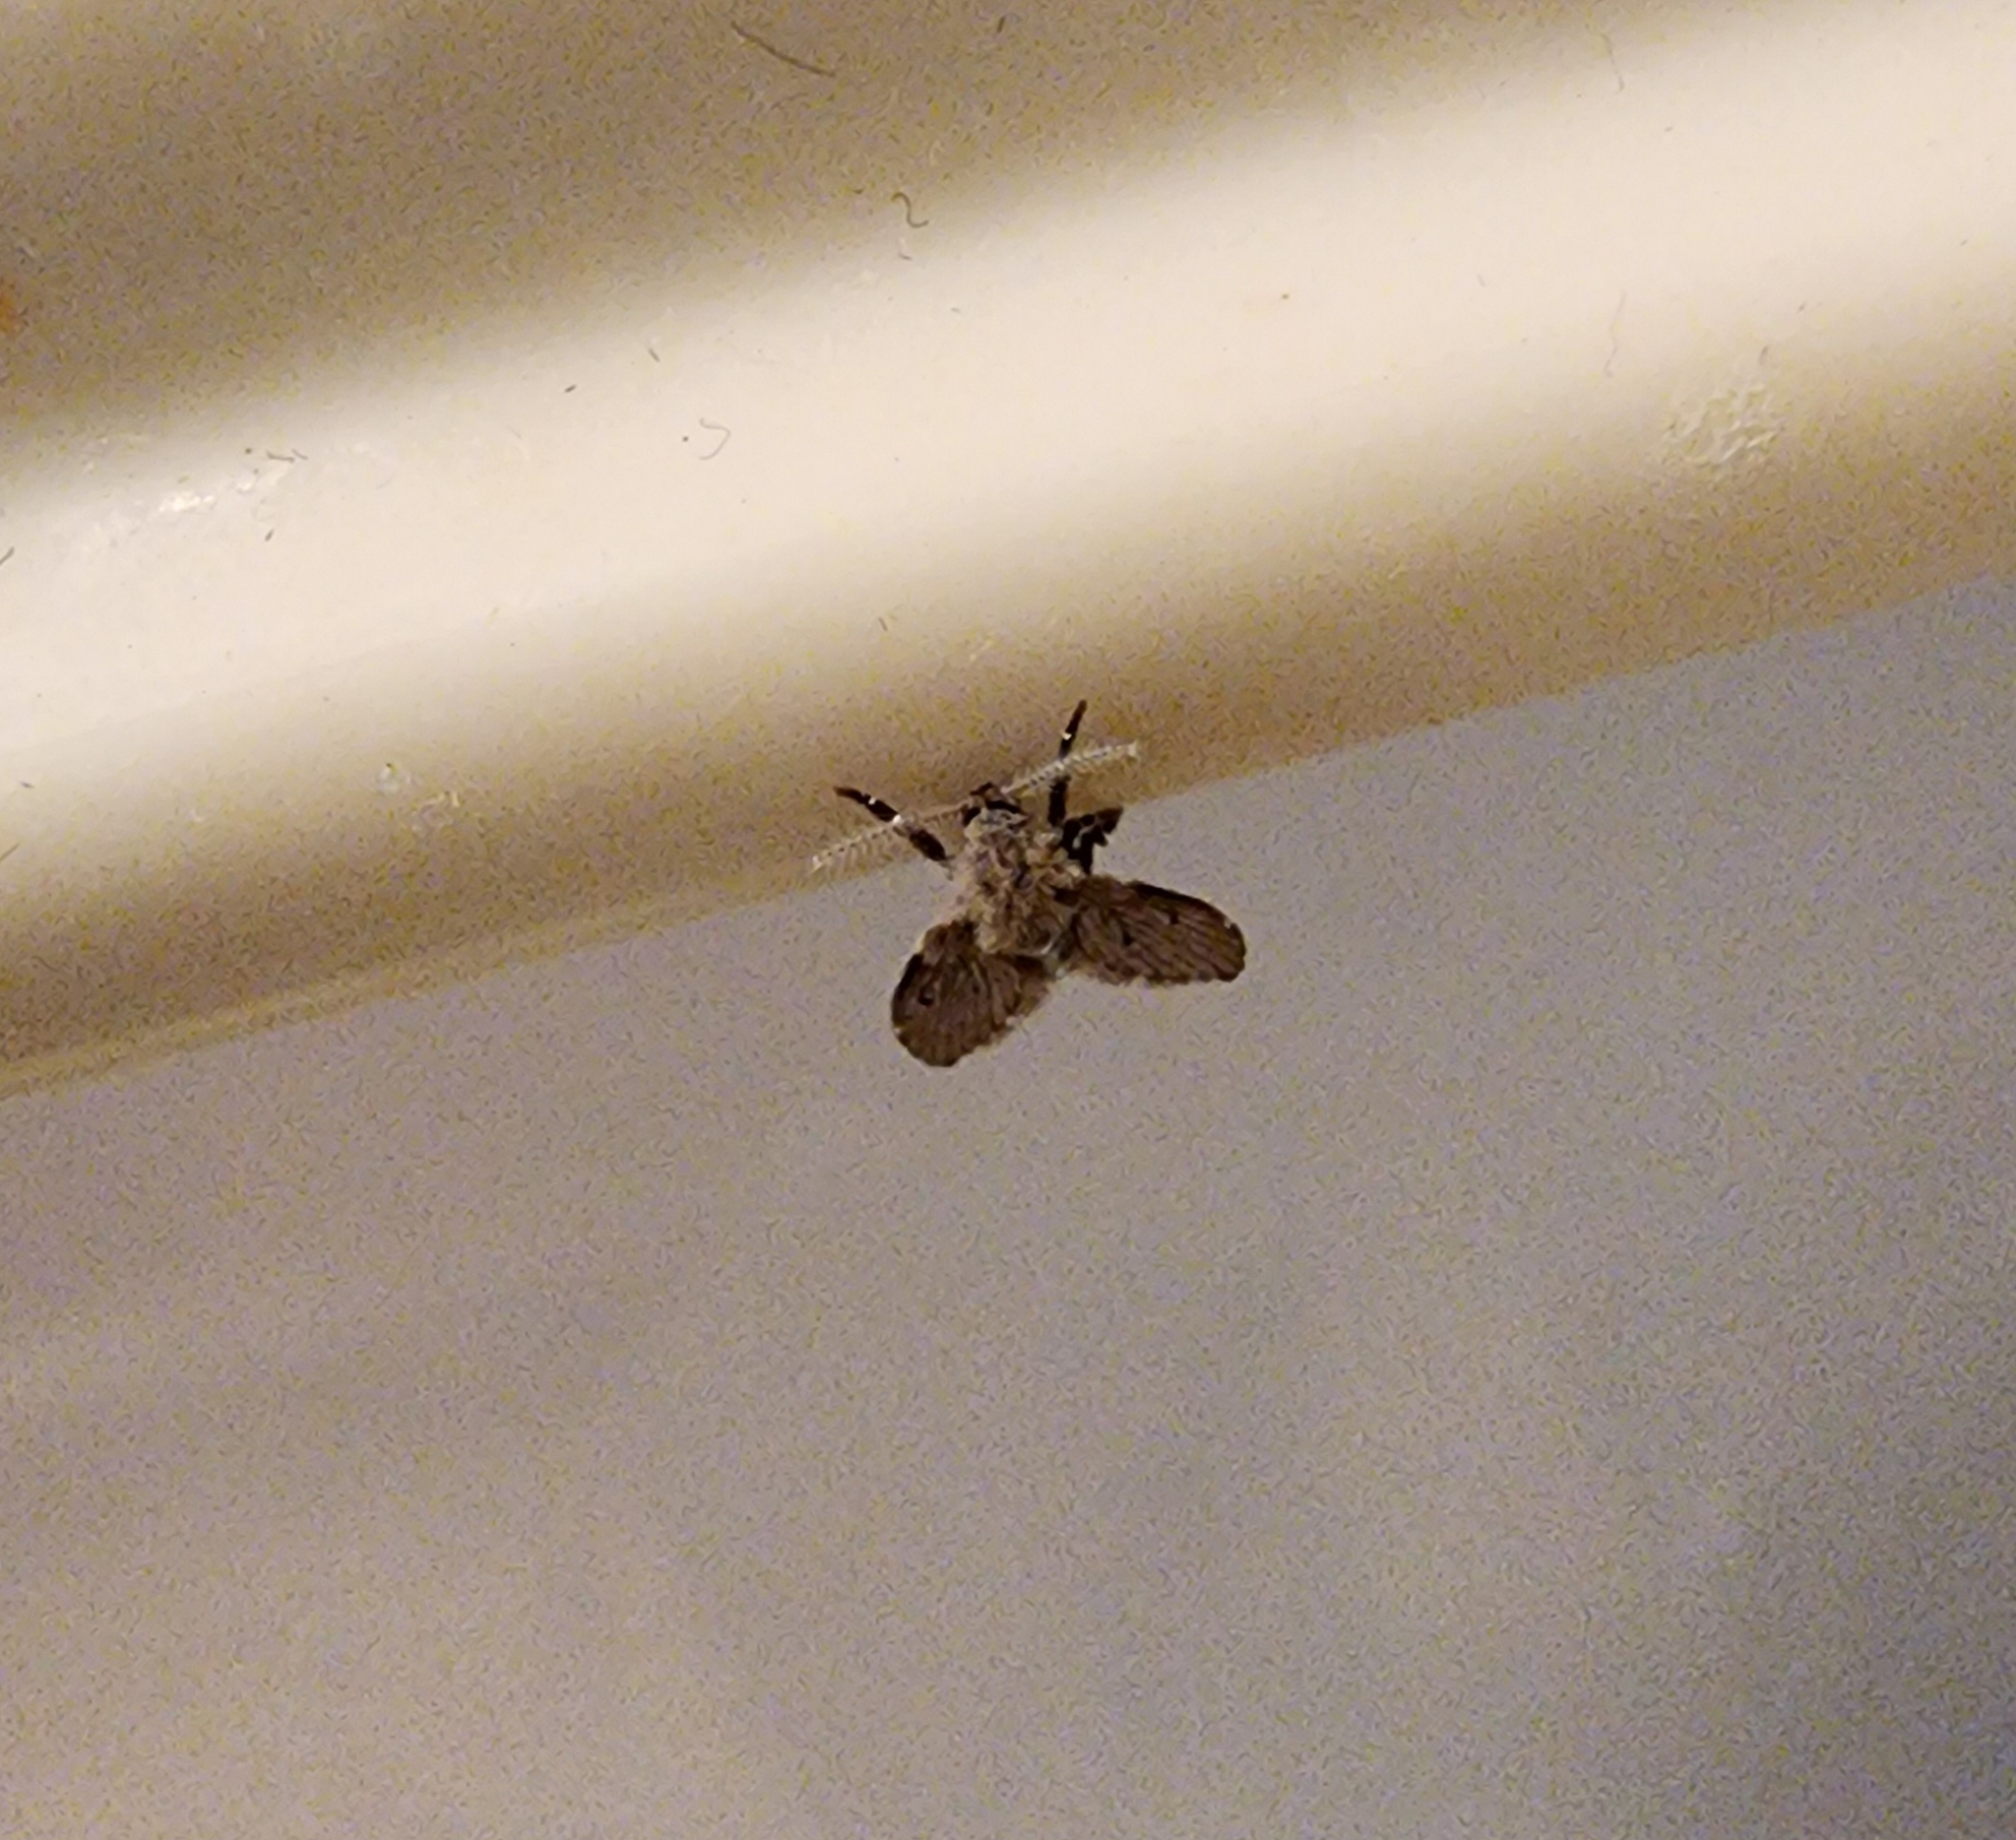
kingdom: Animalia
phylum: Arthropoda
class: Insecta
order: Diptera
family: Psychodidae
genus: Clogmia
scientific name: Clogmia albipunctatus
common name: White-spotted moth fly
